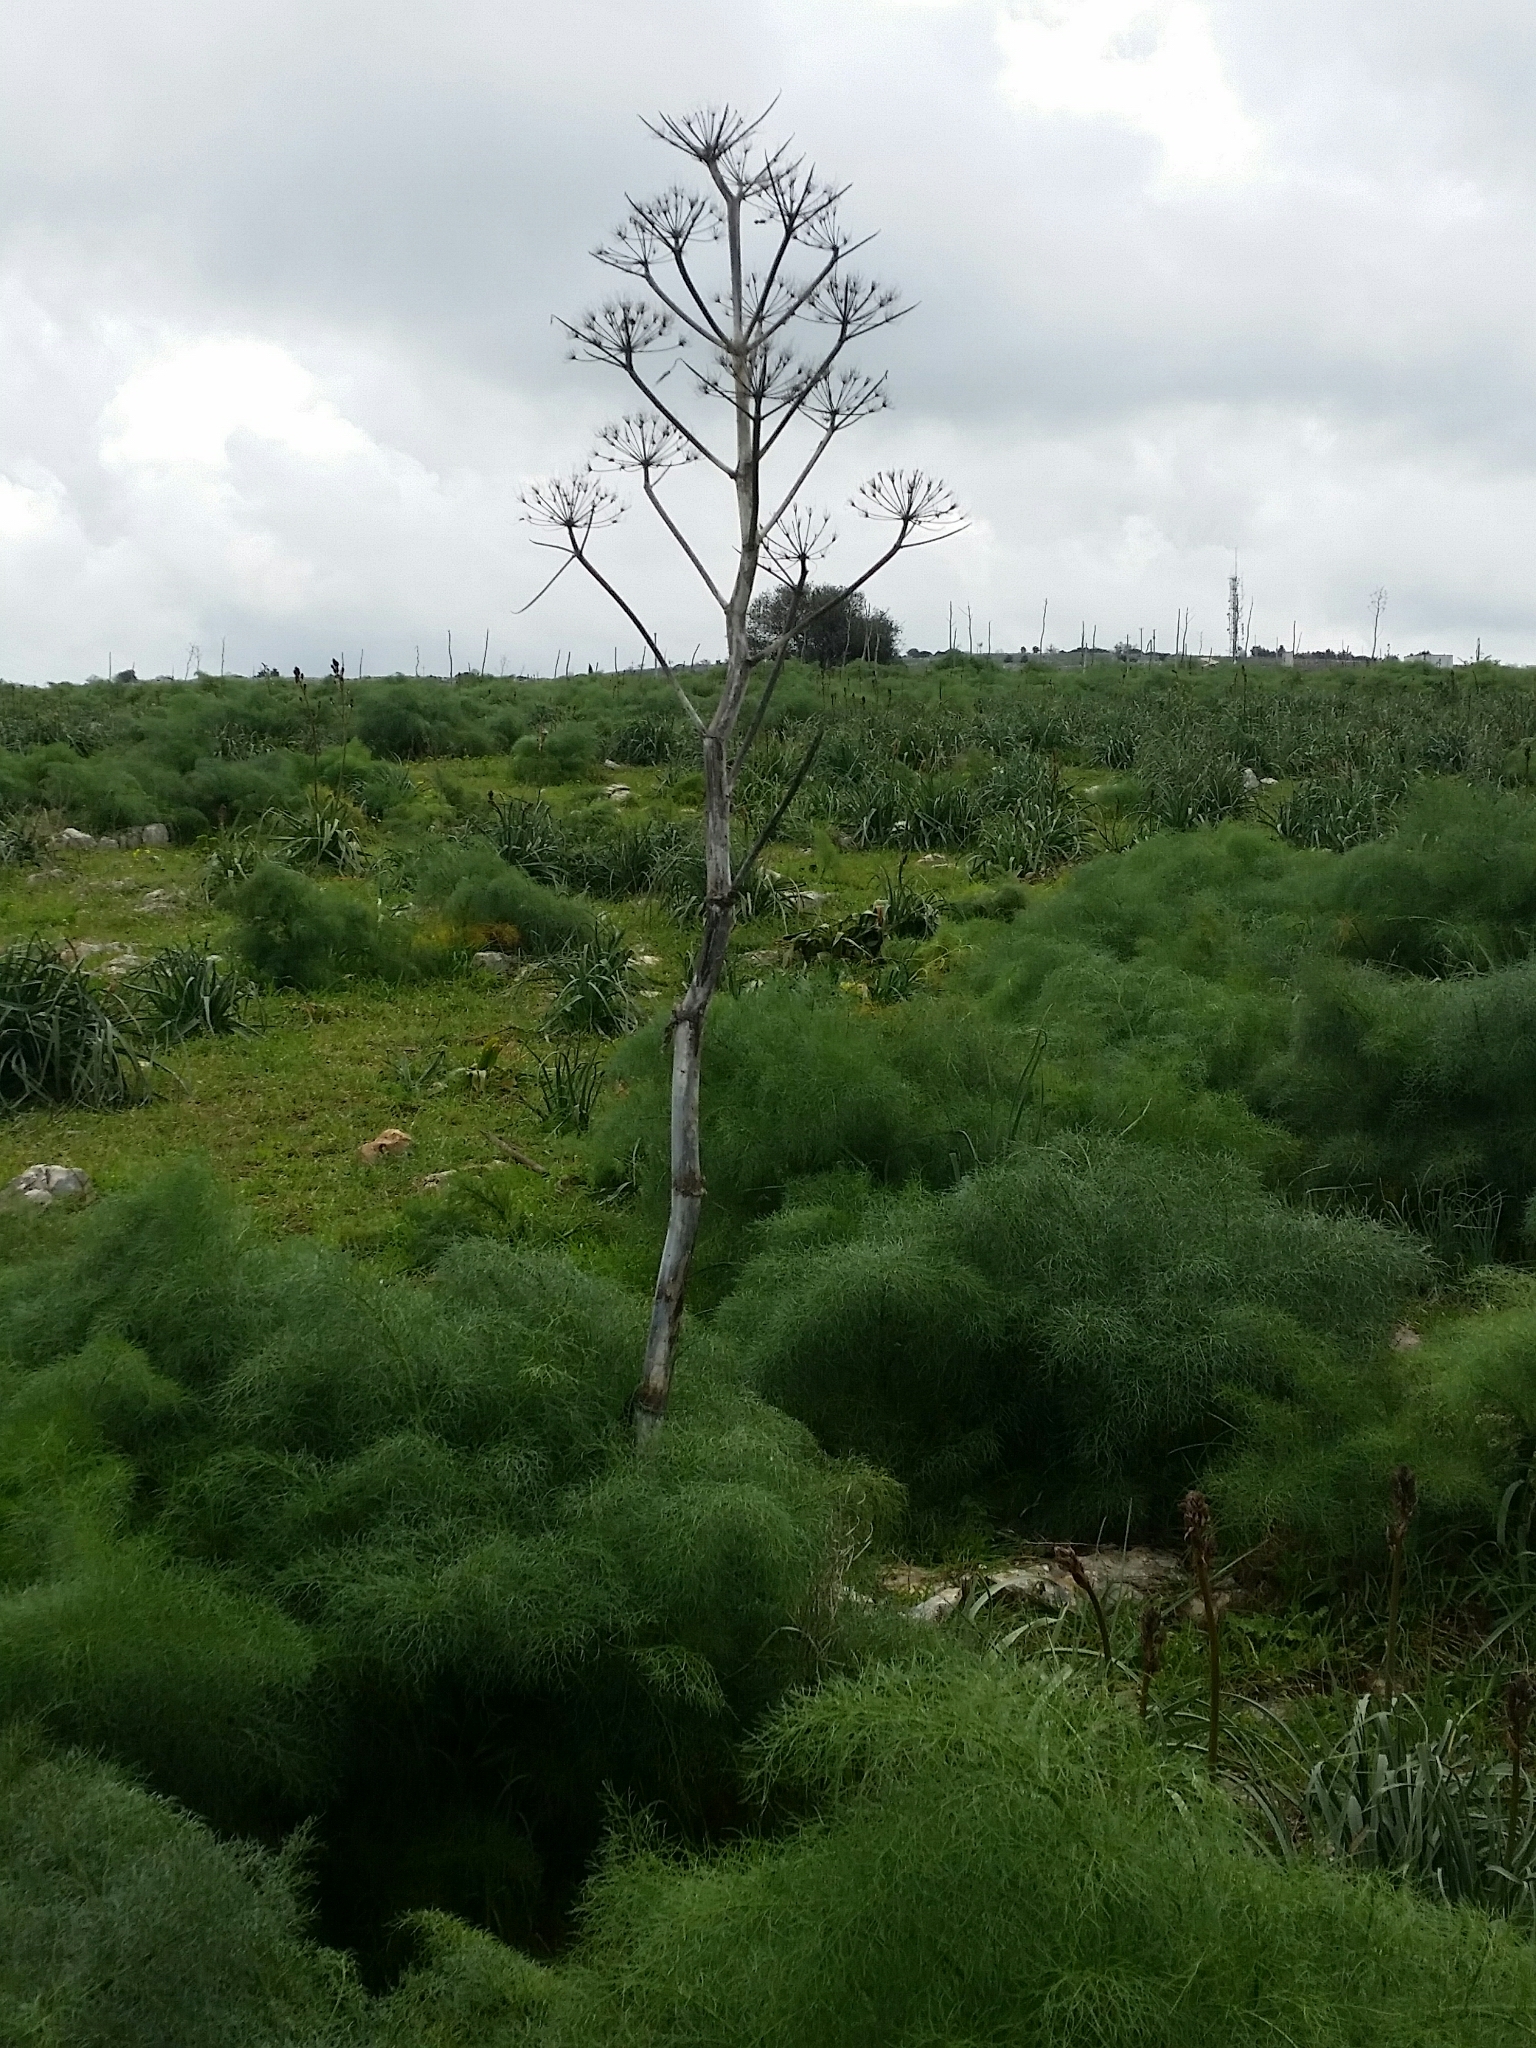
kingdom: Plantae
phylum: Tracheophyta
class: Magnoliopsida
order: Apiales
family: Apiaceae
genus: Ferula
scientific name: Ferula communis
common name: Giant fennel
